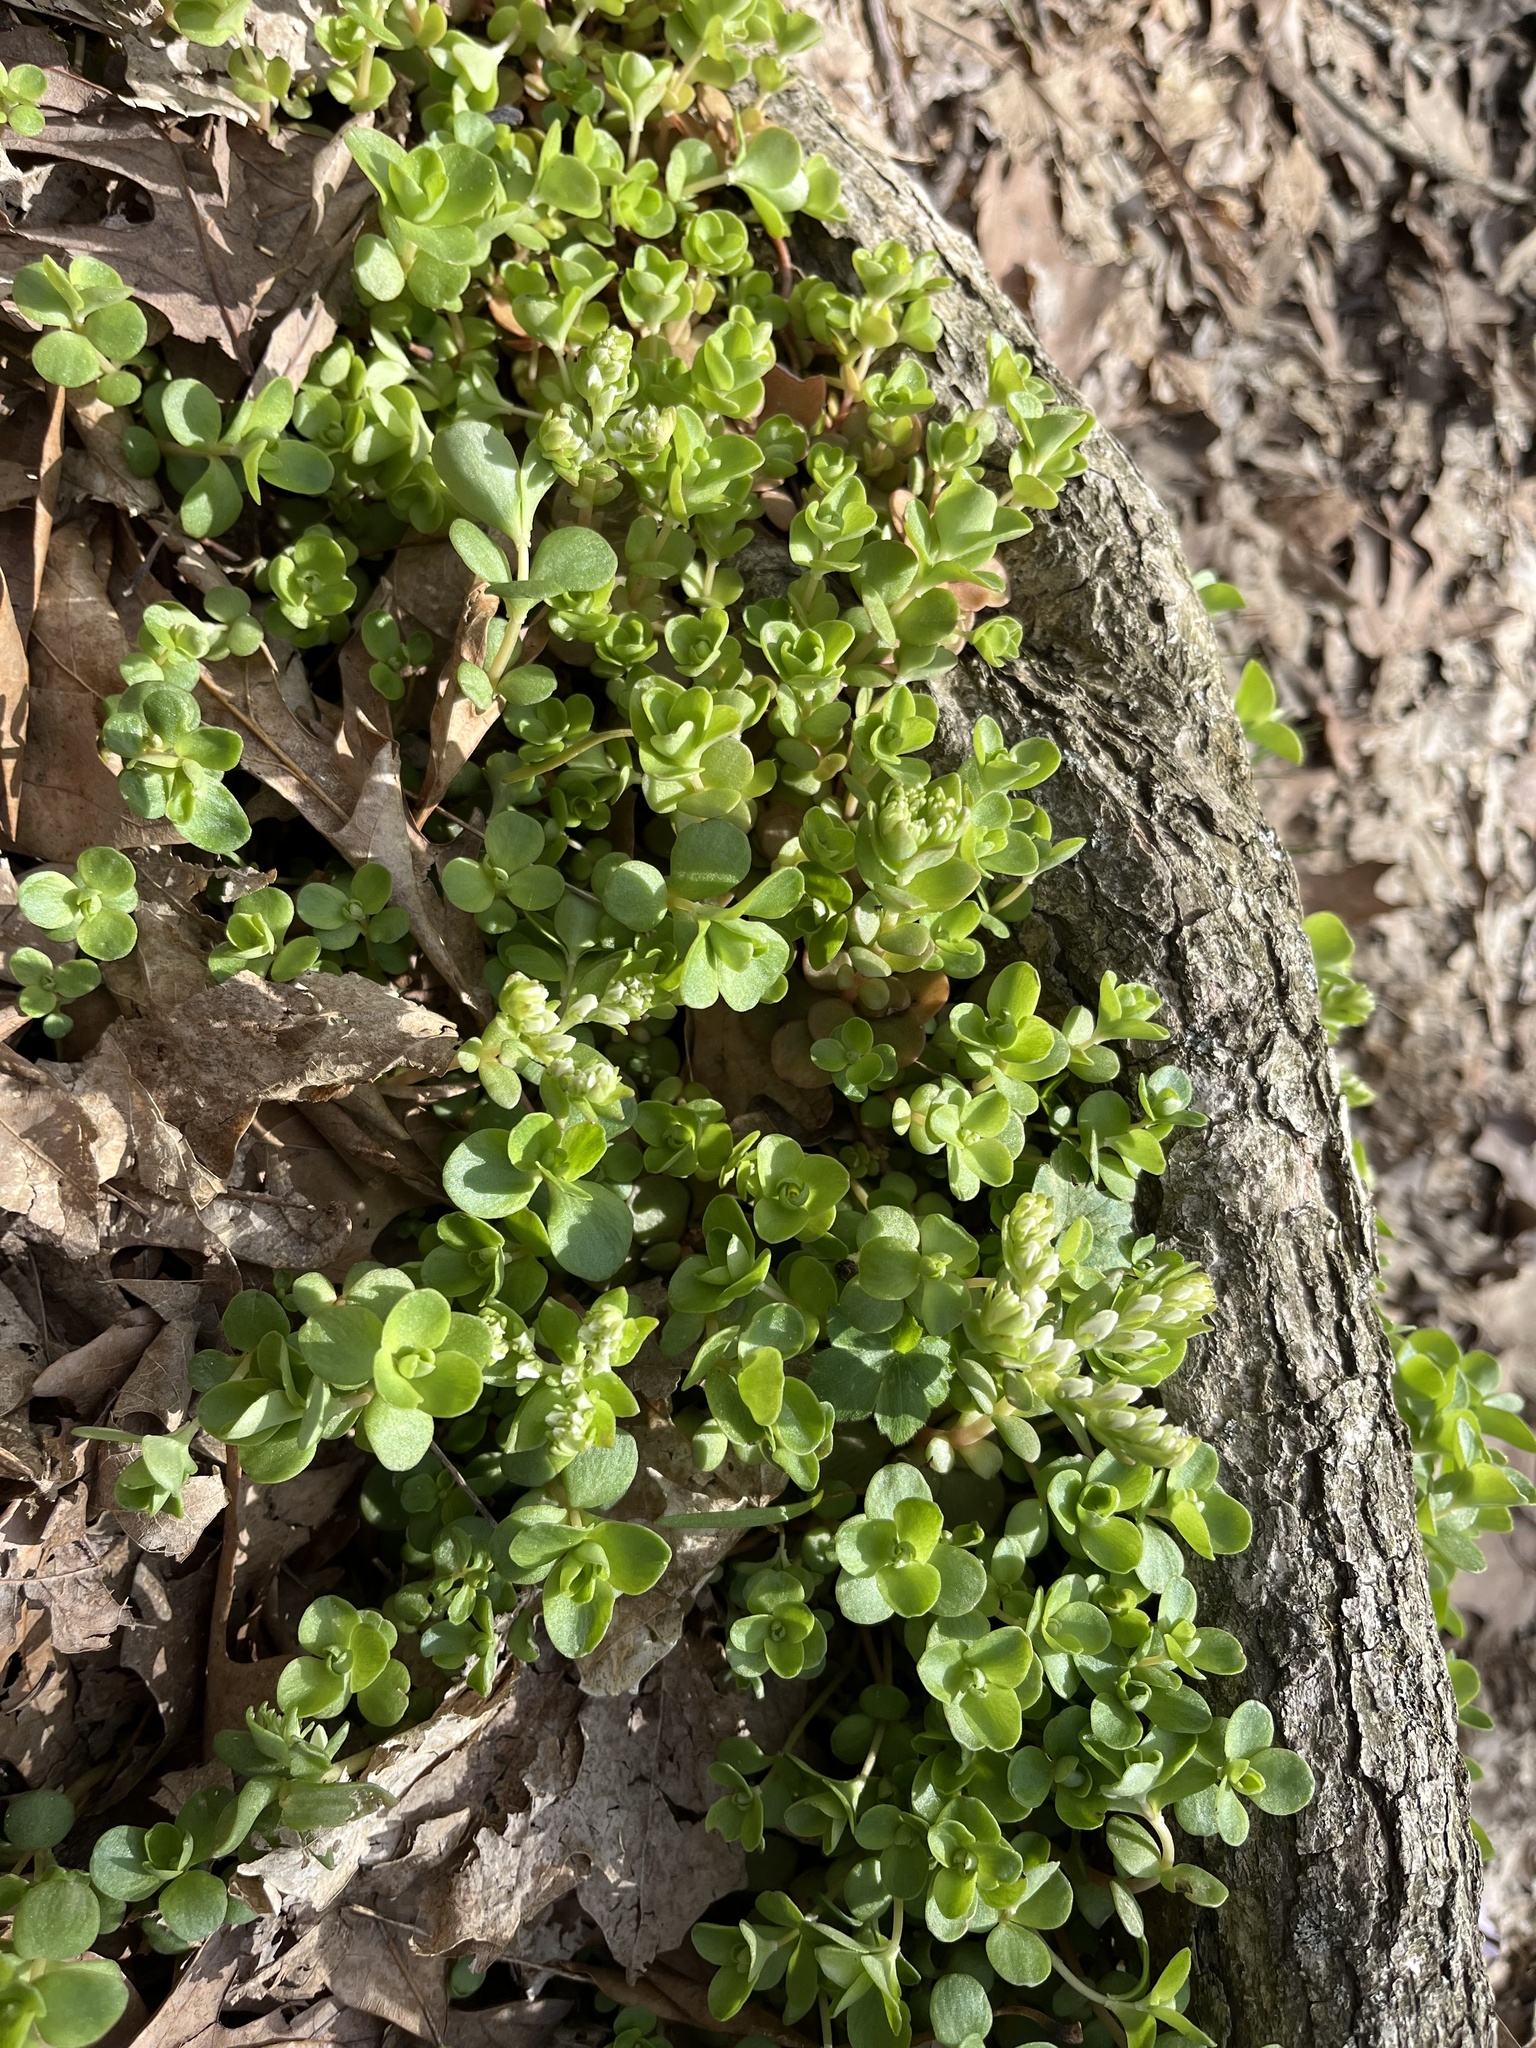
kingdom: Plantae
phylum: Tracheophyta
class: Magnoliopsida
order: Saxifragales
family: Crassulaceae
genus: Sedum
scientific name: Sedum ternatum
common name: Wild stonecrop
